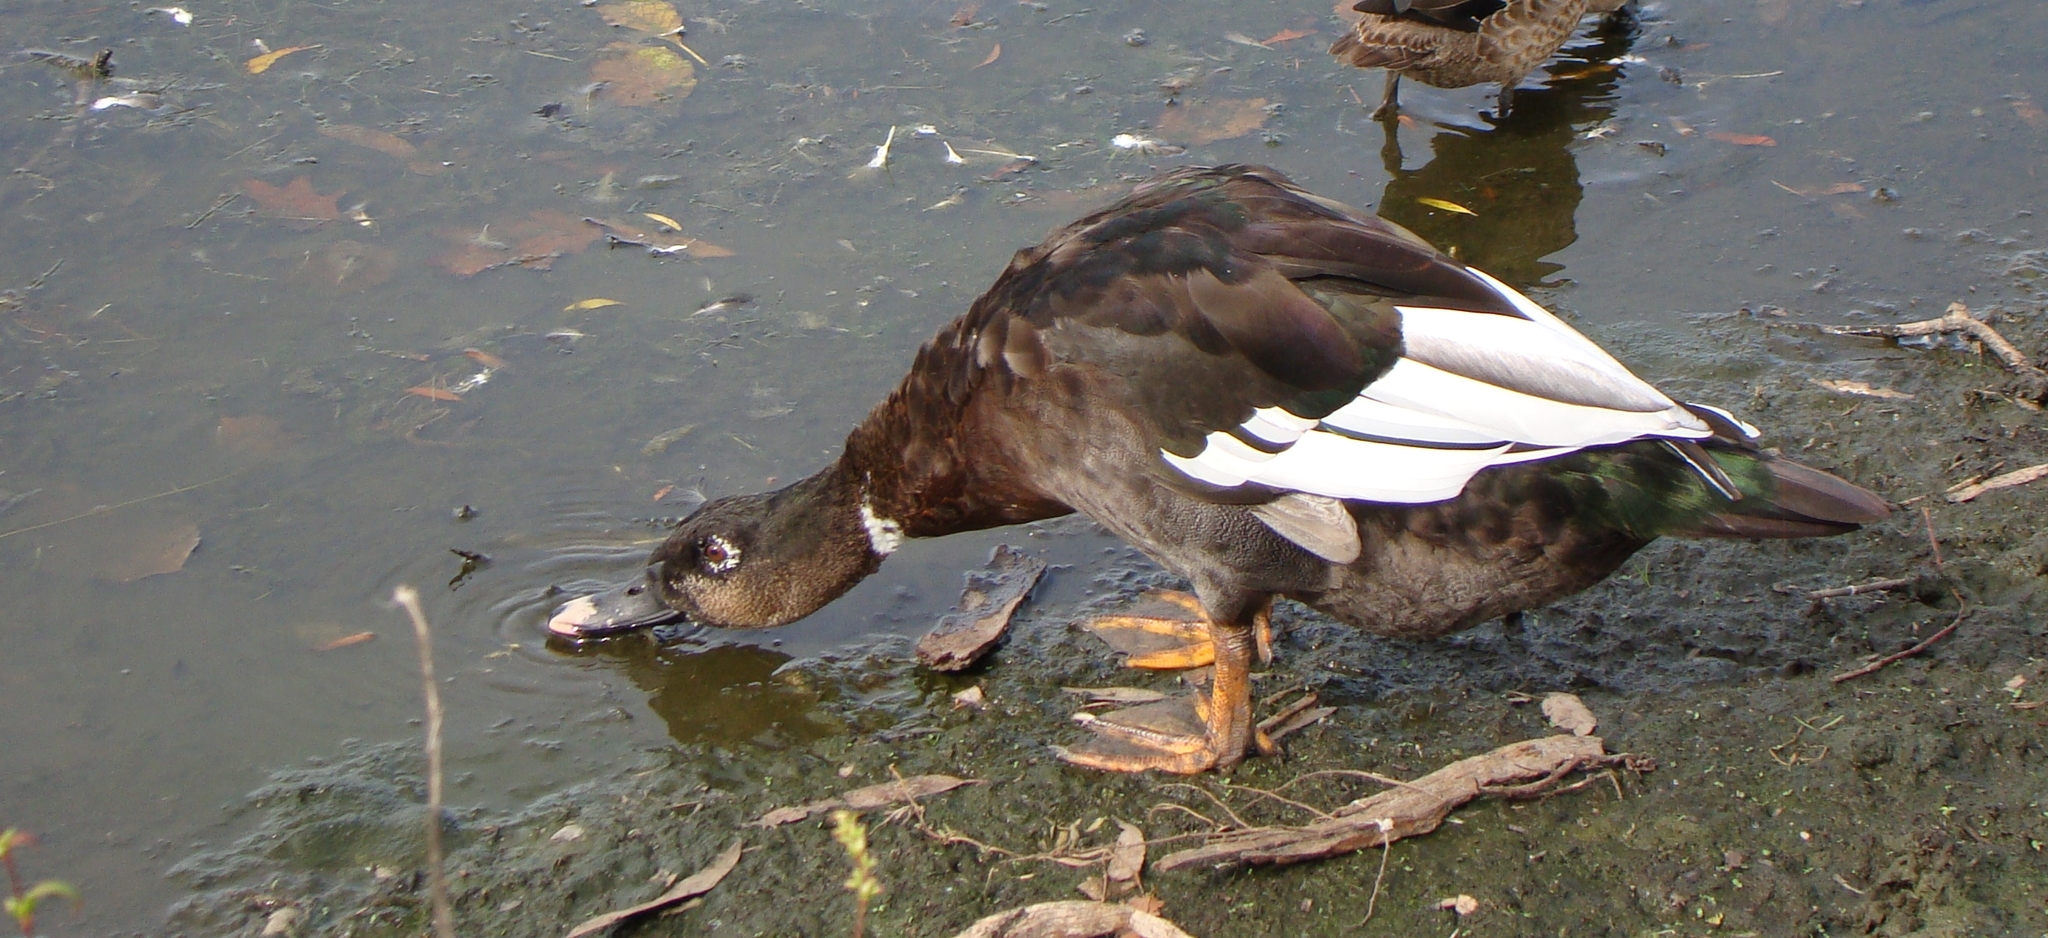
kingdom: Animalia
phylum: Chordata
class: Aves
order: Anseriformes
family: Anatidae
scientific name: Anatidae
